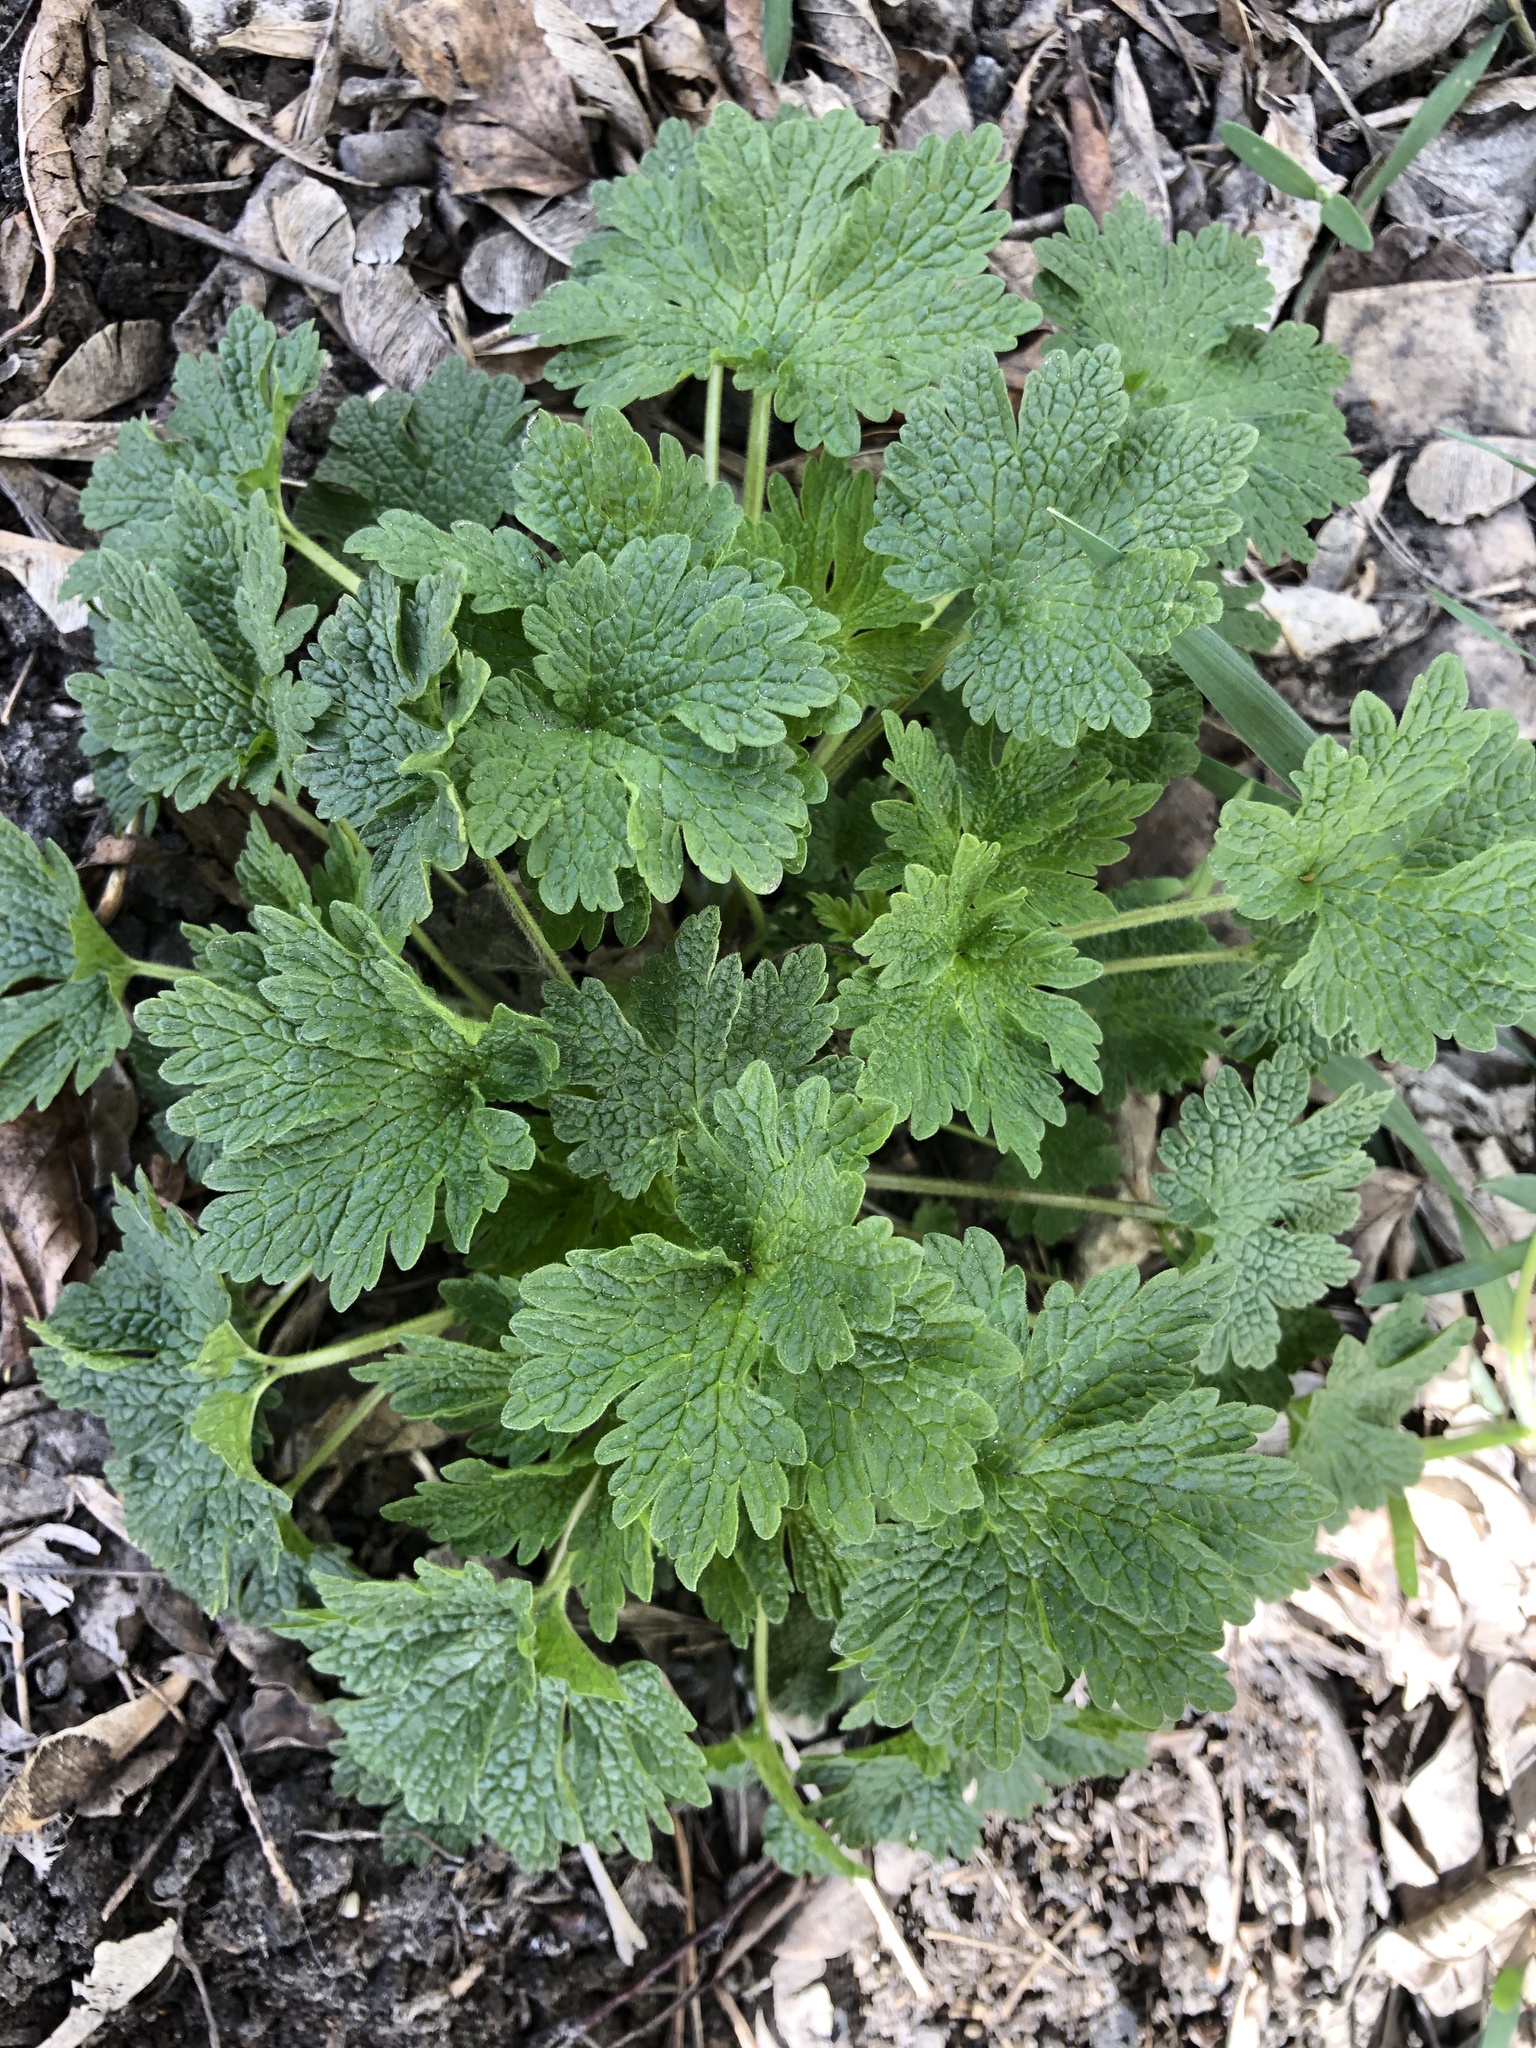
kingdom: Plantae
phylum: Tracheophyta
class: Magnoliopsida
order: Lamiales
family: Lamiaceae
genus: Leonurus
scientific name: Leonurus quinquelobatus
